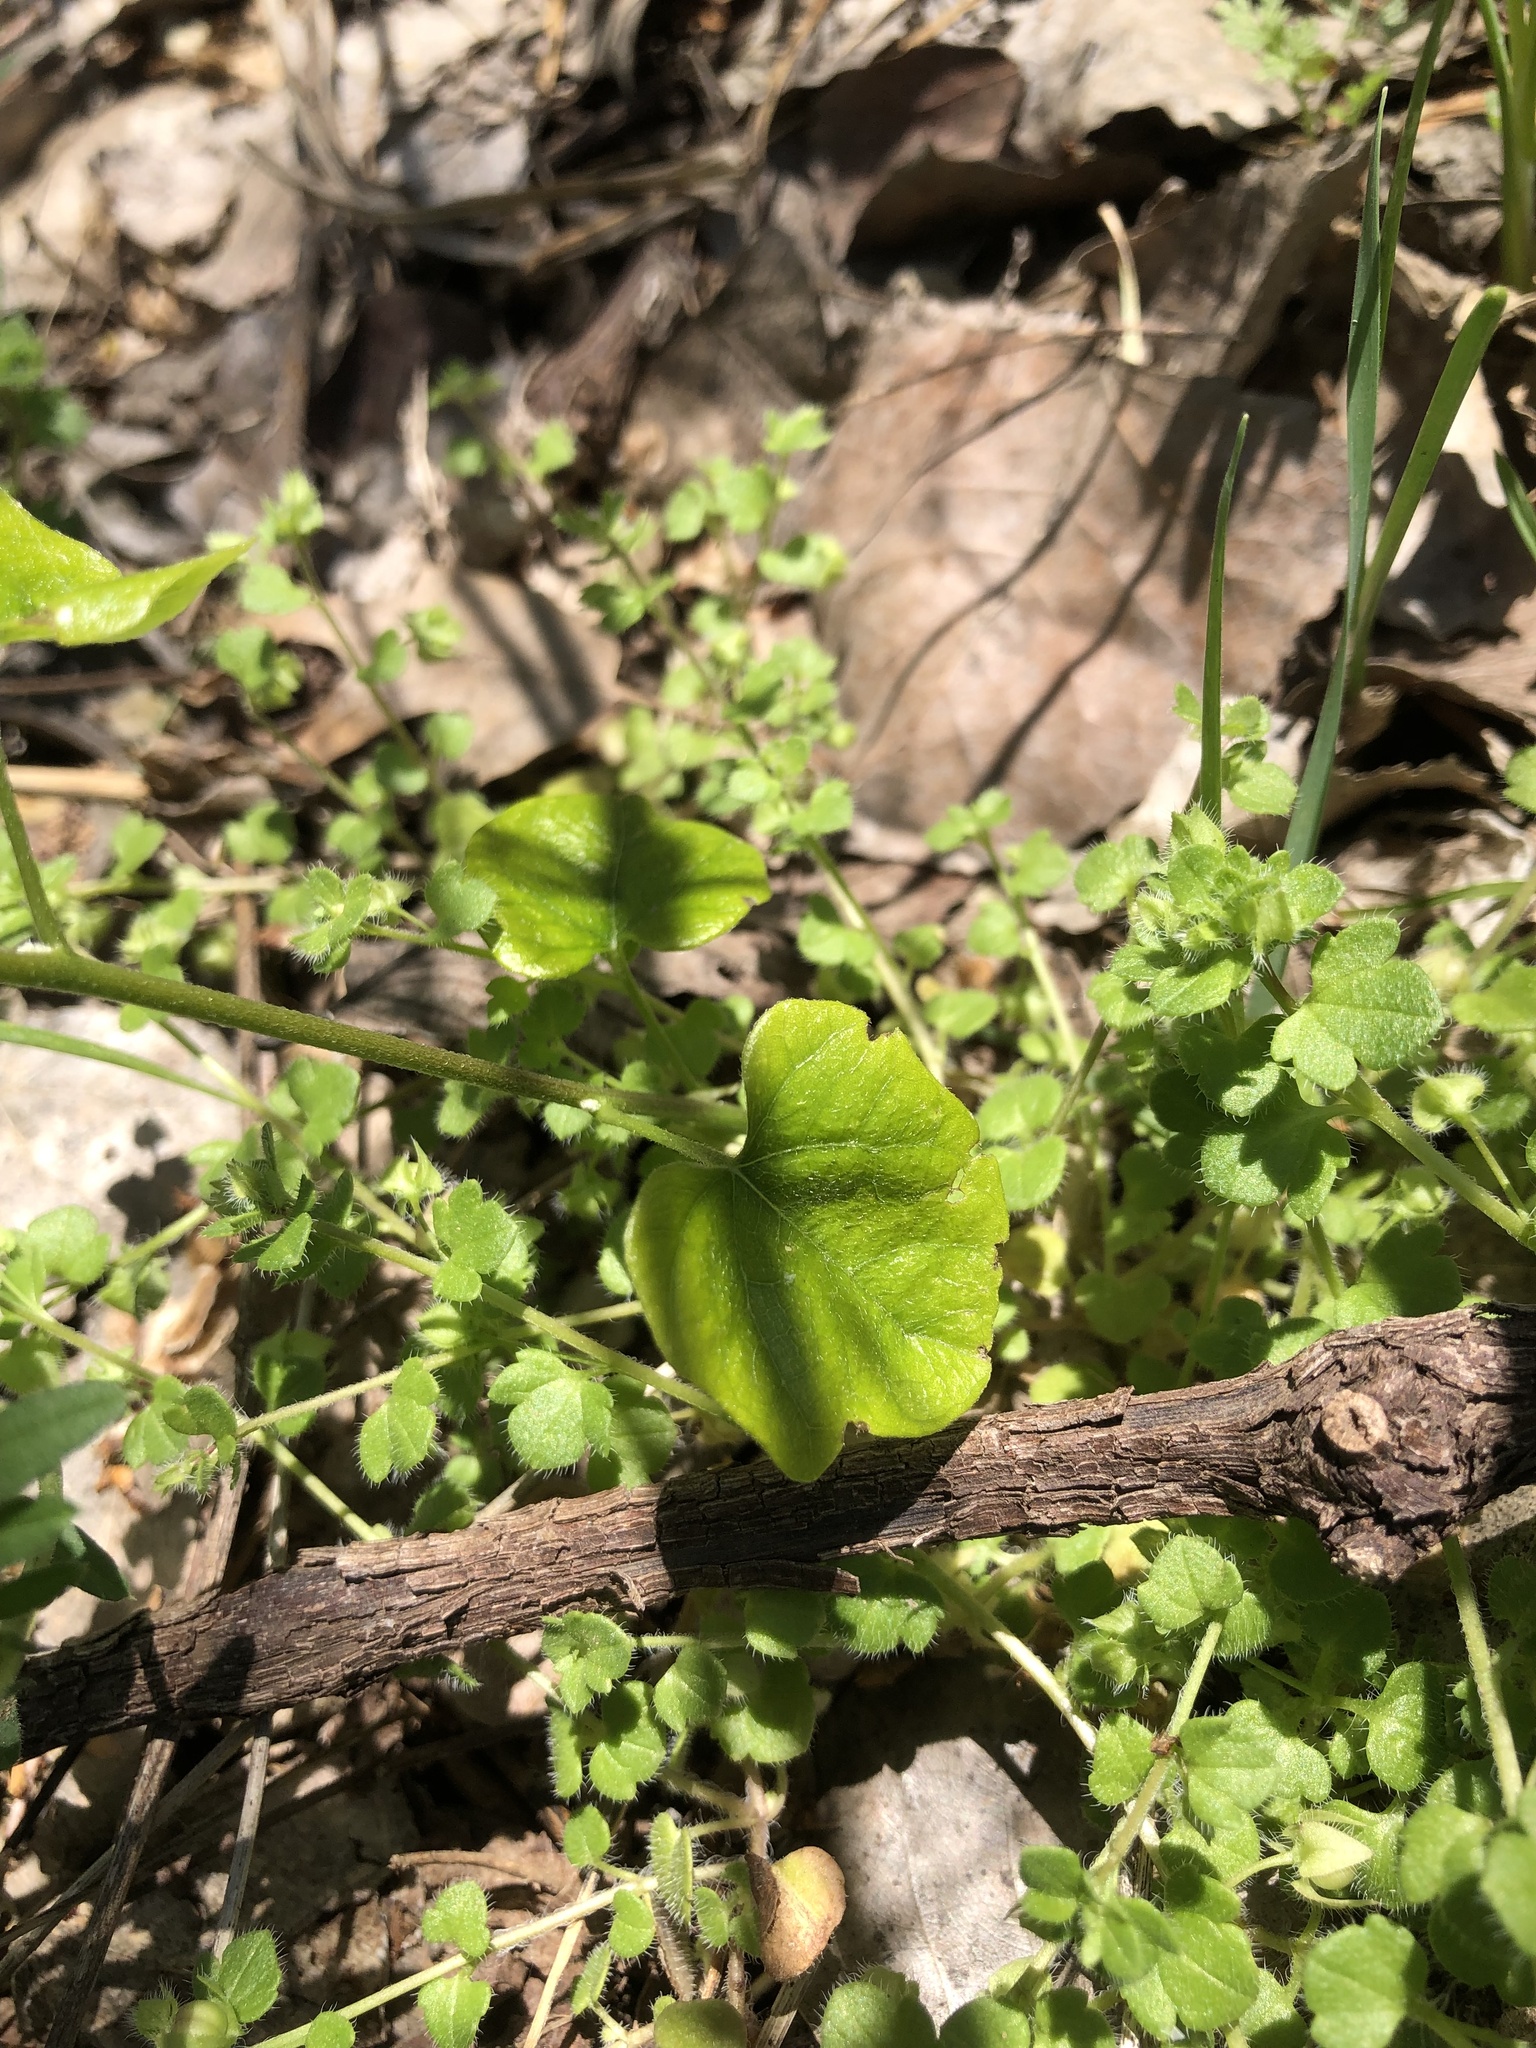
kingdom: Plantae
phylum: Tracheophyta
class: Magnoliopsida
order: Ranunculales
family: Menispermaceae
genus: Cocculus
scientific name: Cocculus carolinus
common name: Carolina moonseed
